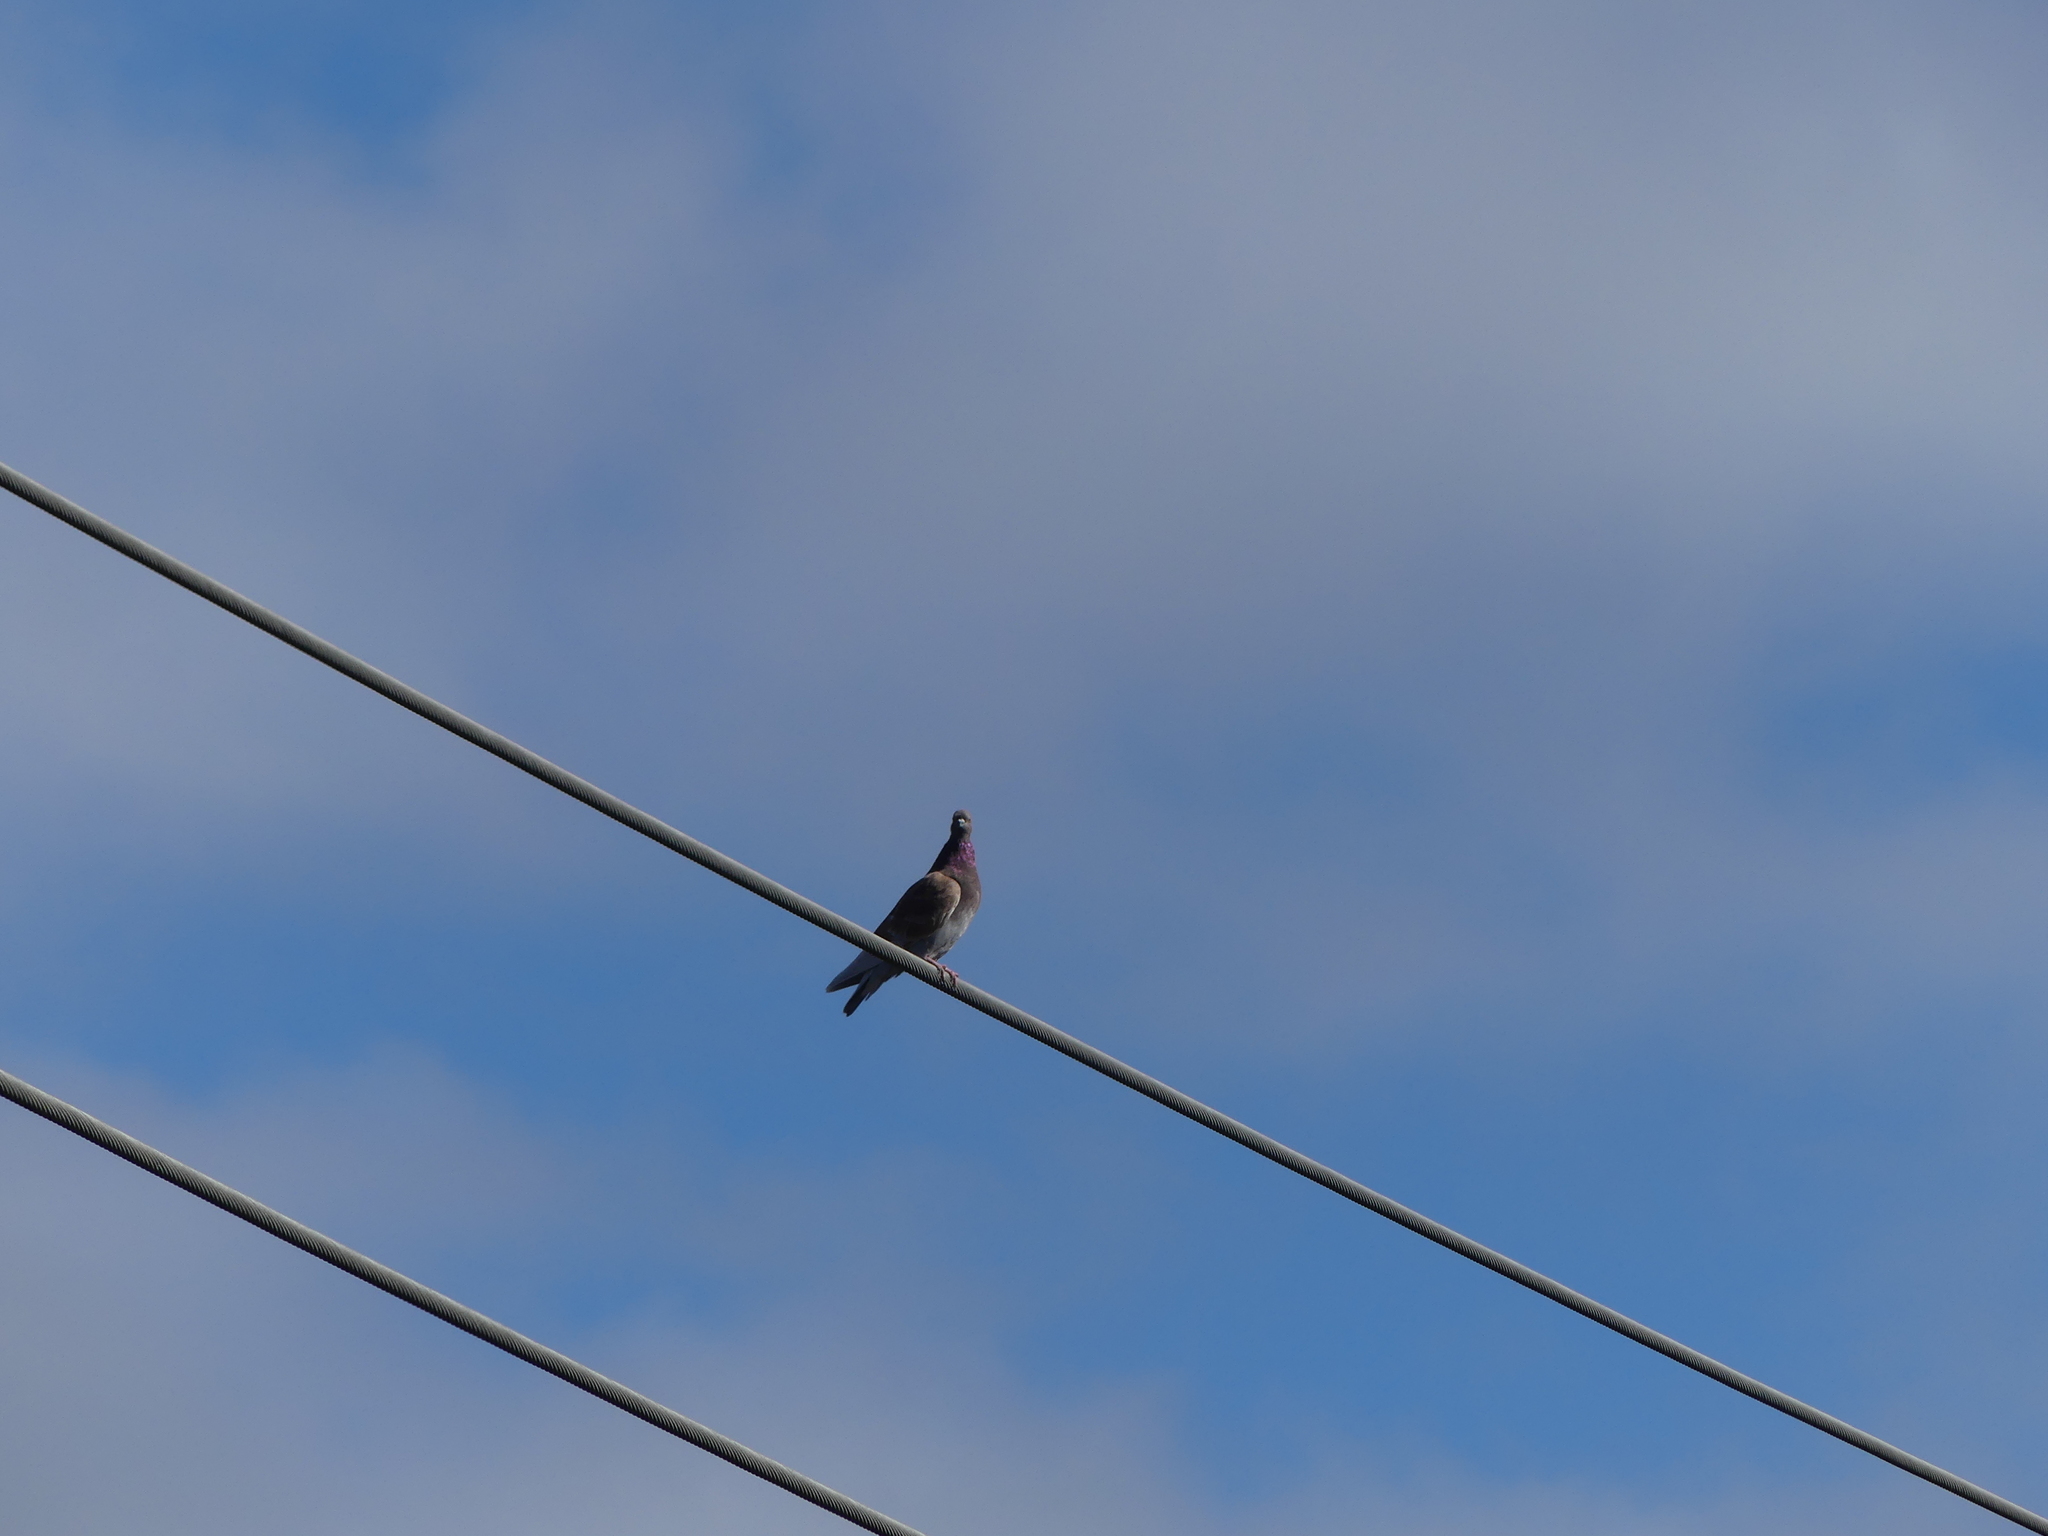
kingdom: Animalia
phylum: Chordata
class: Aves
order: Columbiformes
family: Columbidae
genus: Columba
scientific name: Columba livia
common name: Rock pigeon
